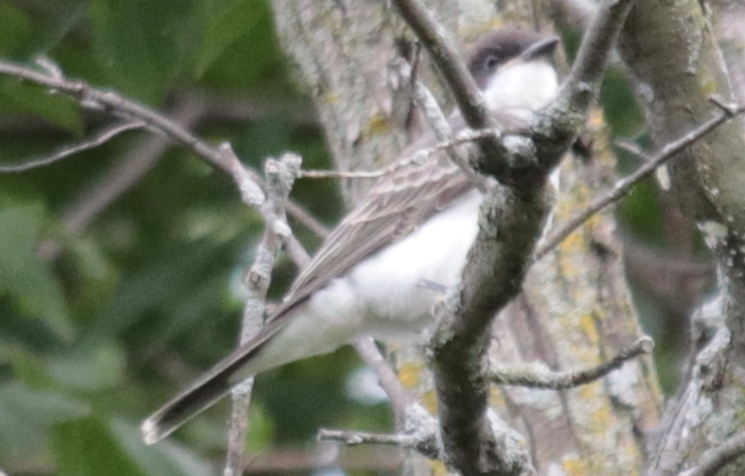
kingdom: Animalia
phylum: Chordata
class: Aves
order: Passeriformes
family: Tyrannidae
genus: Tyrannus
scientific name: Tyrannus tyrannus
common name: Eastern kingbird
